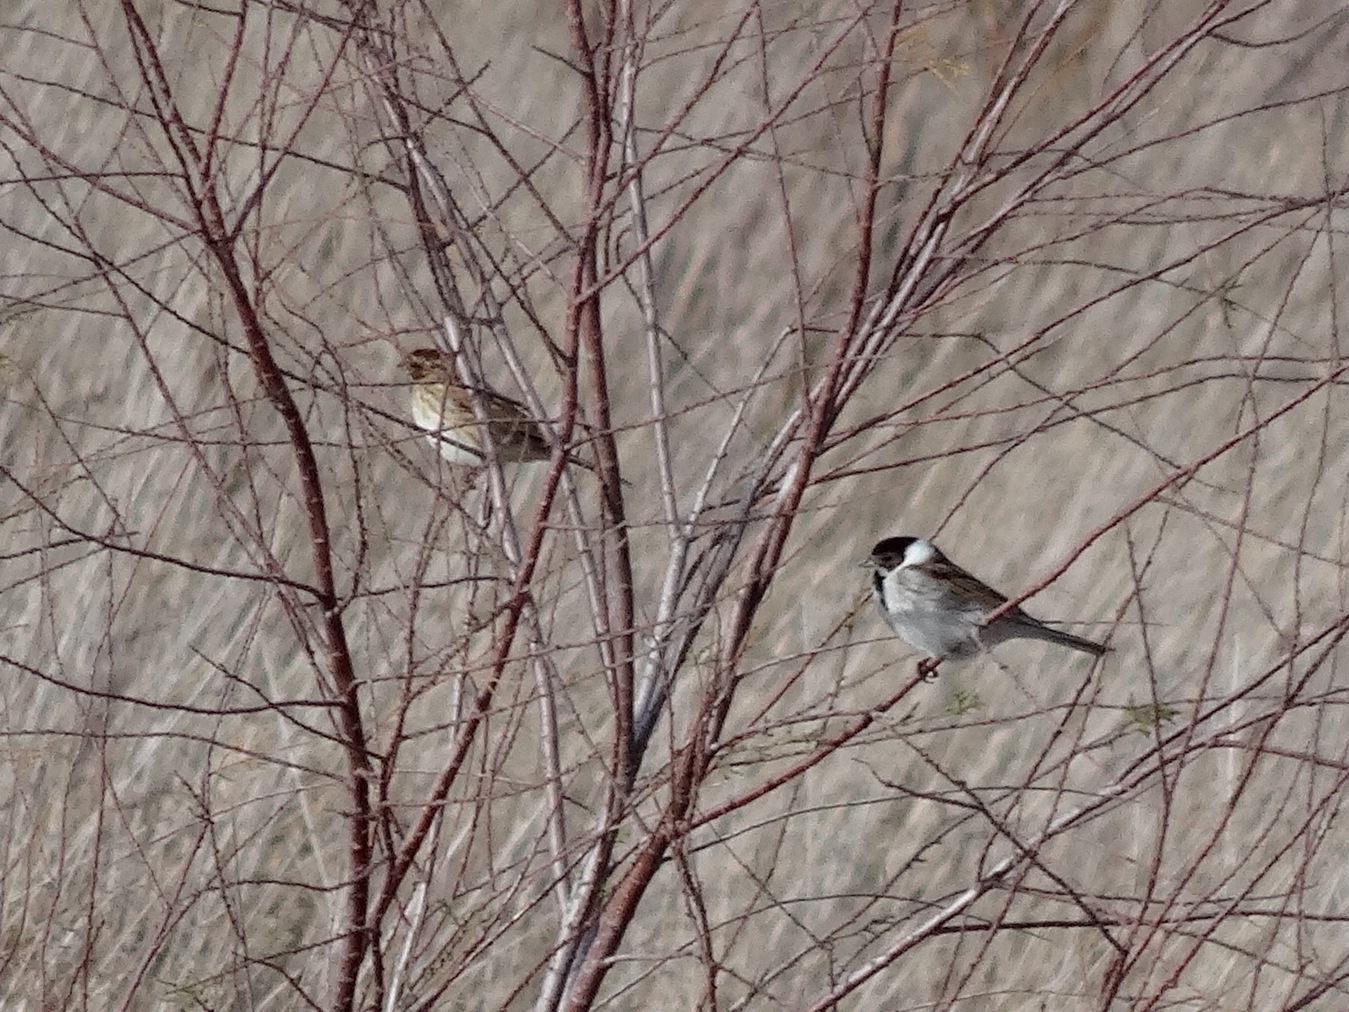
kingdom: Animalia
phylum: Chordata
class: Aves
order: Passeriformes
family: Emberizidae
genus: Emberiza
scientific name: Emberiza schoeniclus
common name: Reed bunting
